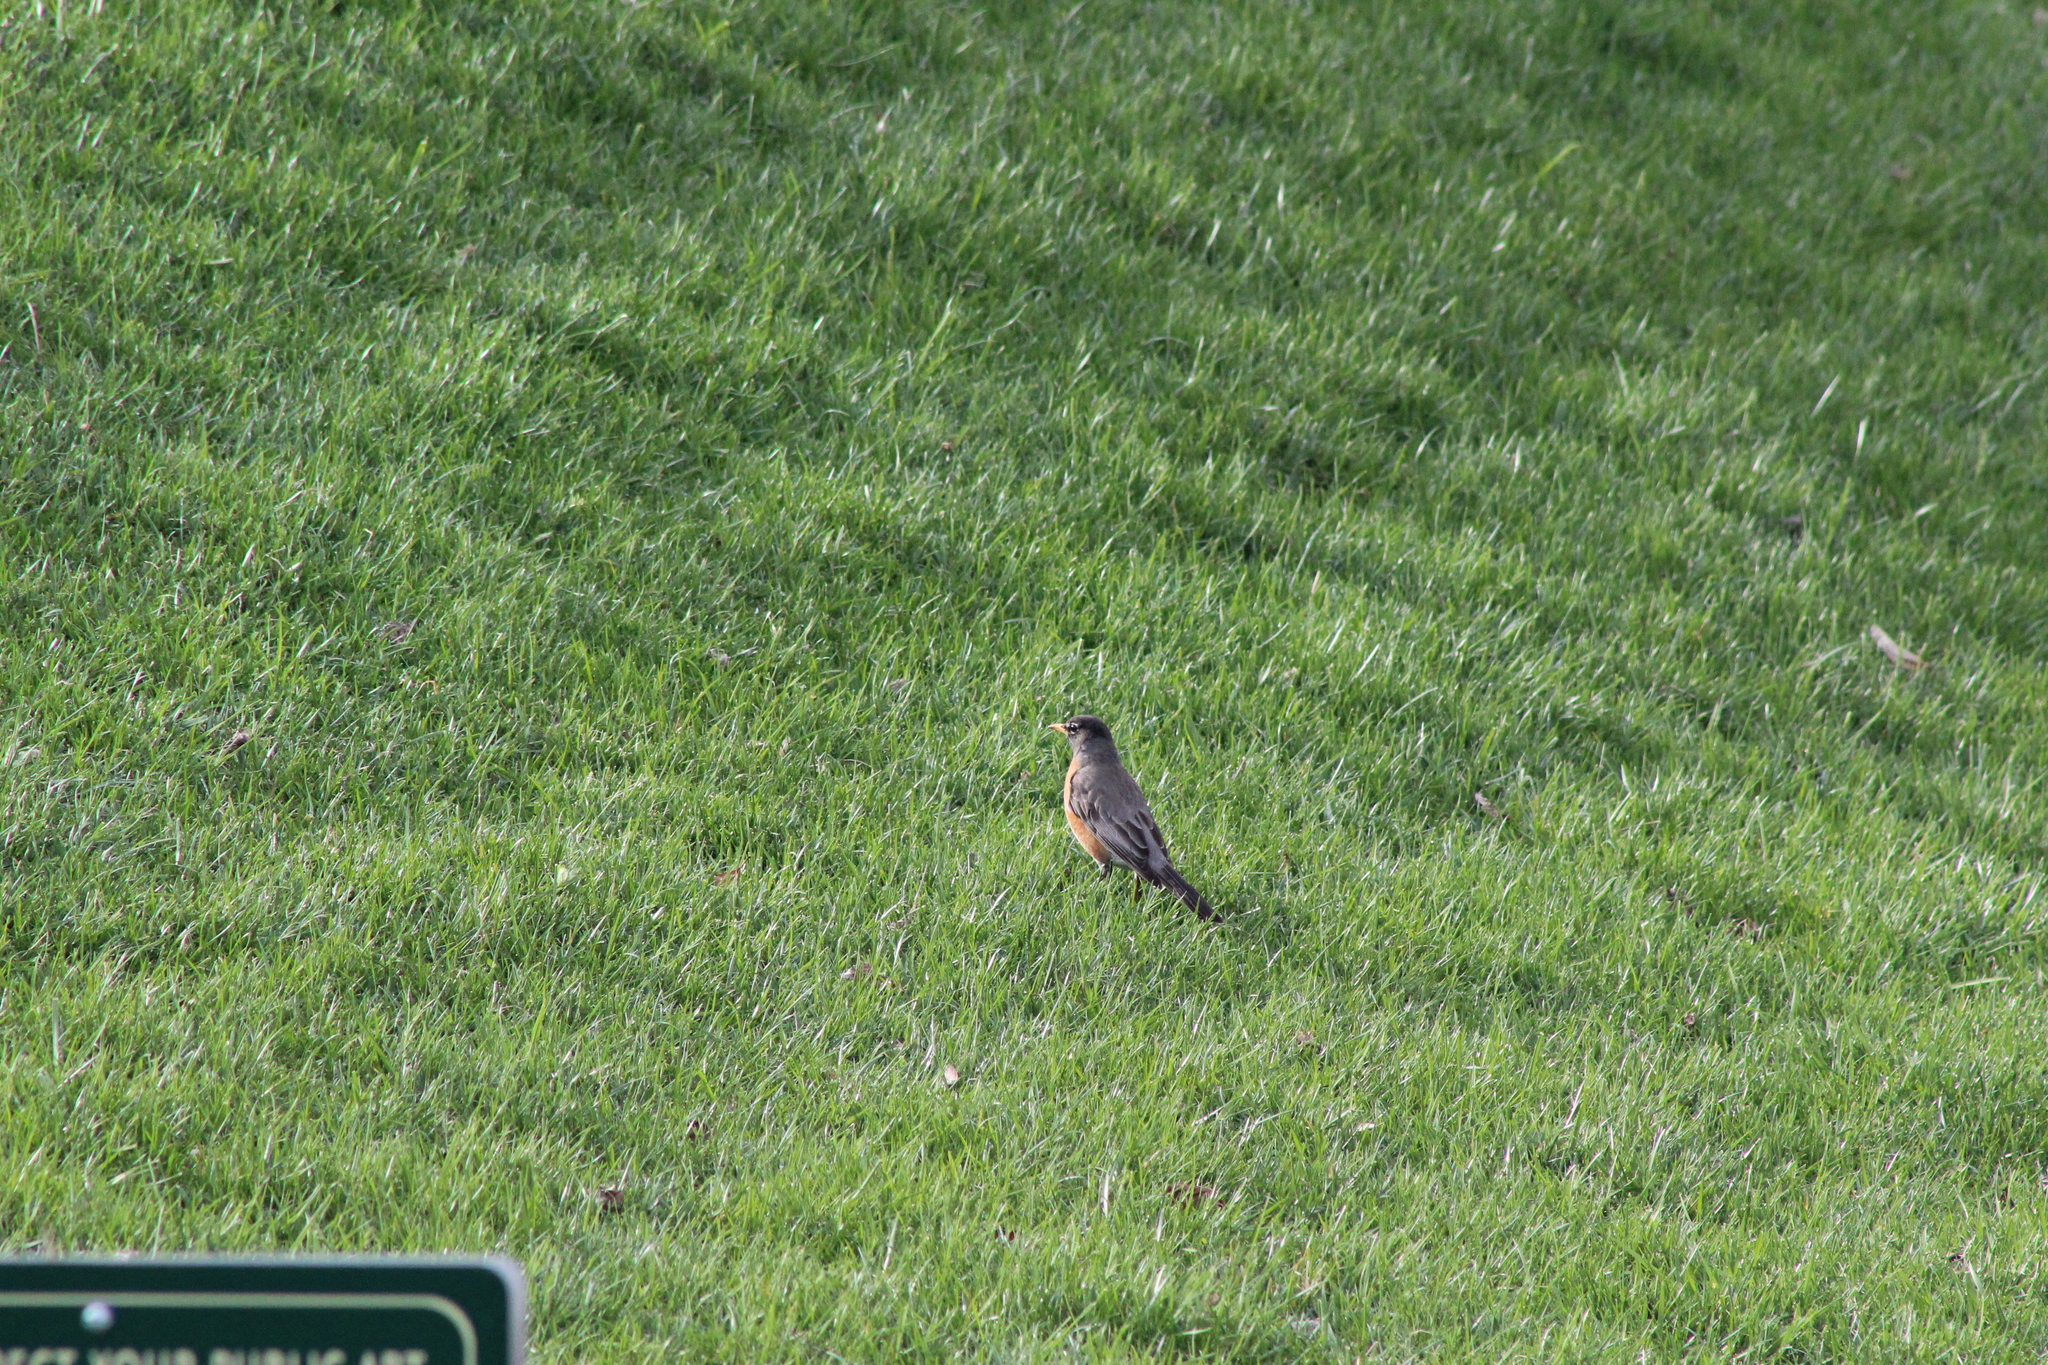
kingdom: Animalia
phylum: Chordata
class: Aves
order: Passeriformes
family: Turdidae
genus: Turdus
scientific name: Turdus migratorius
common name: American robin
